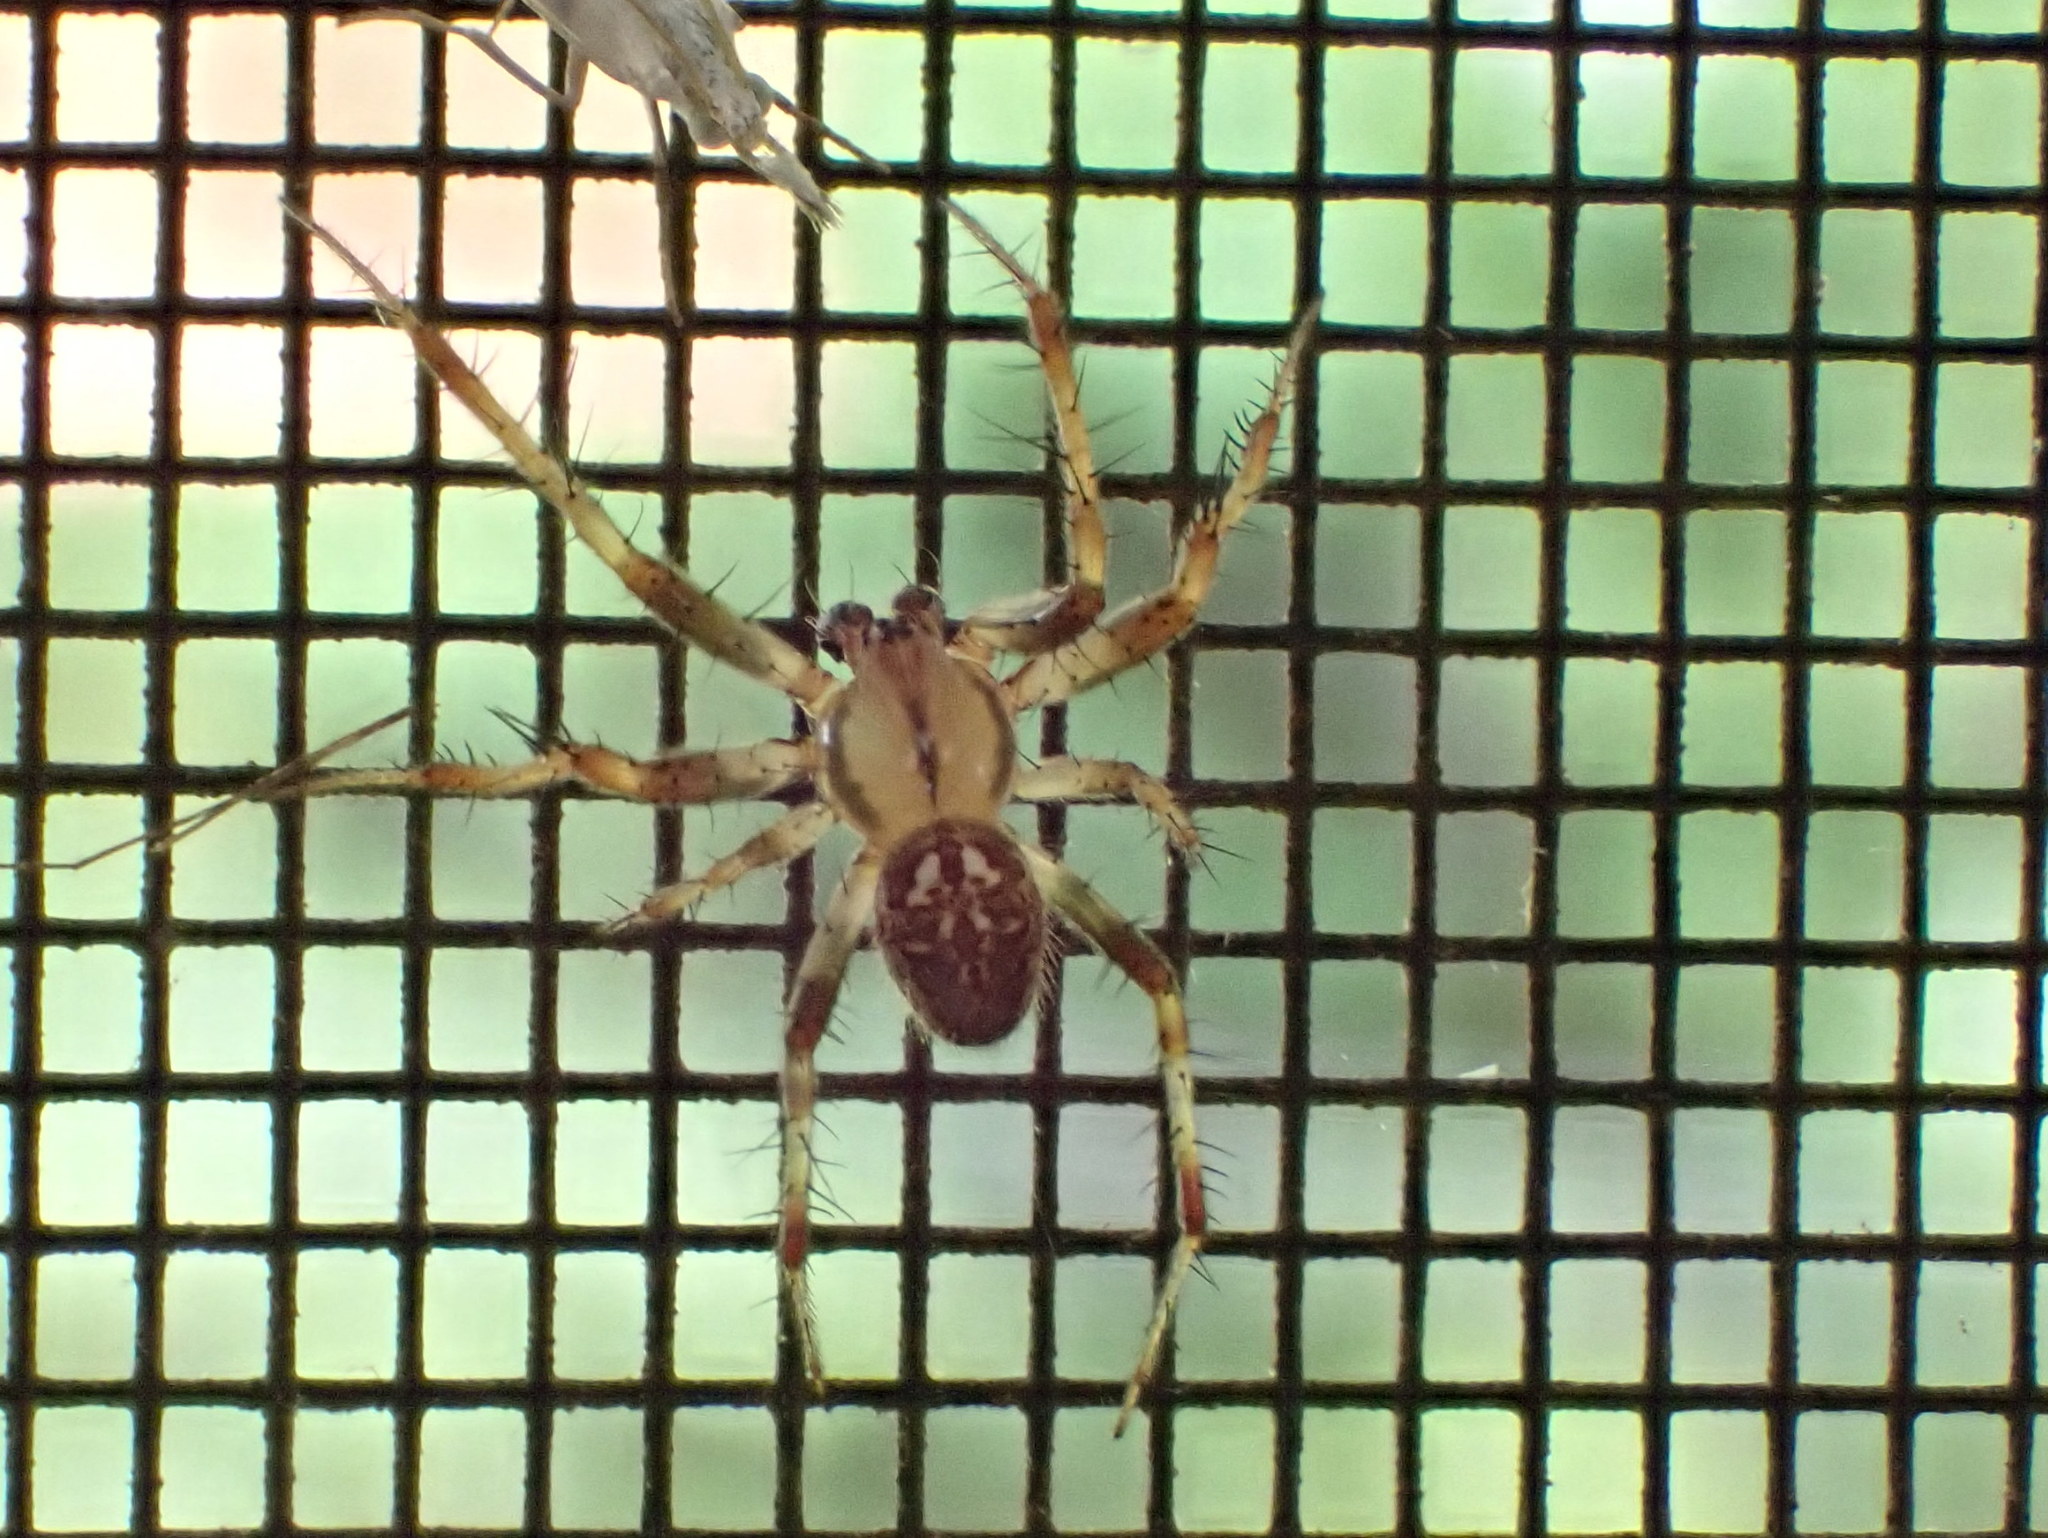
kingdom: Animalia
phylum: Arthropoda
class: Arachnida
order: Araneae
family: Araneidae
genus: Neoscona
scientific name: Neoscona arabesca
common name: Orb weavers
